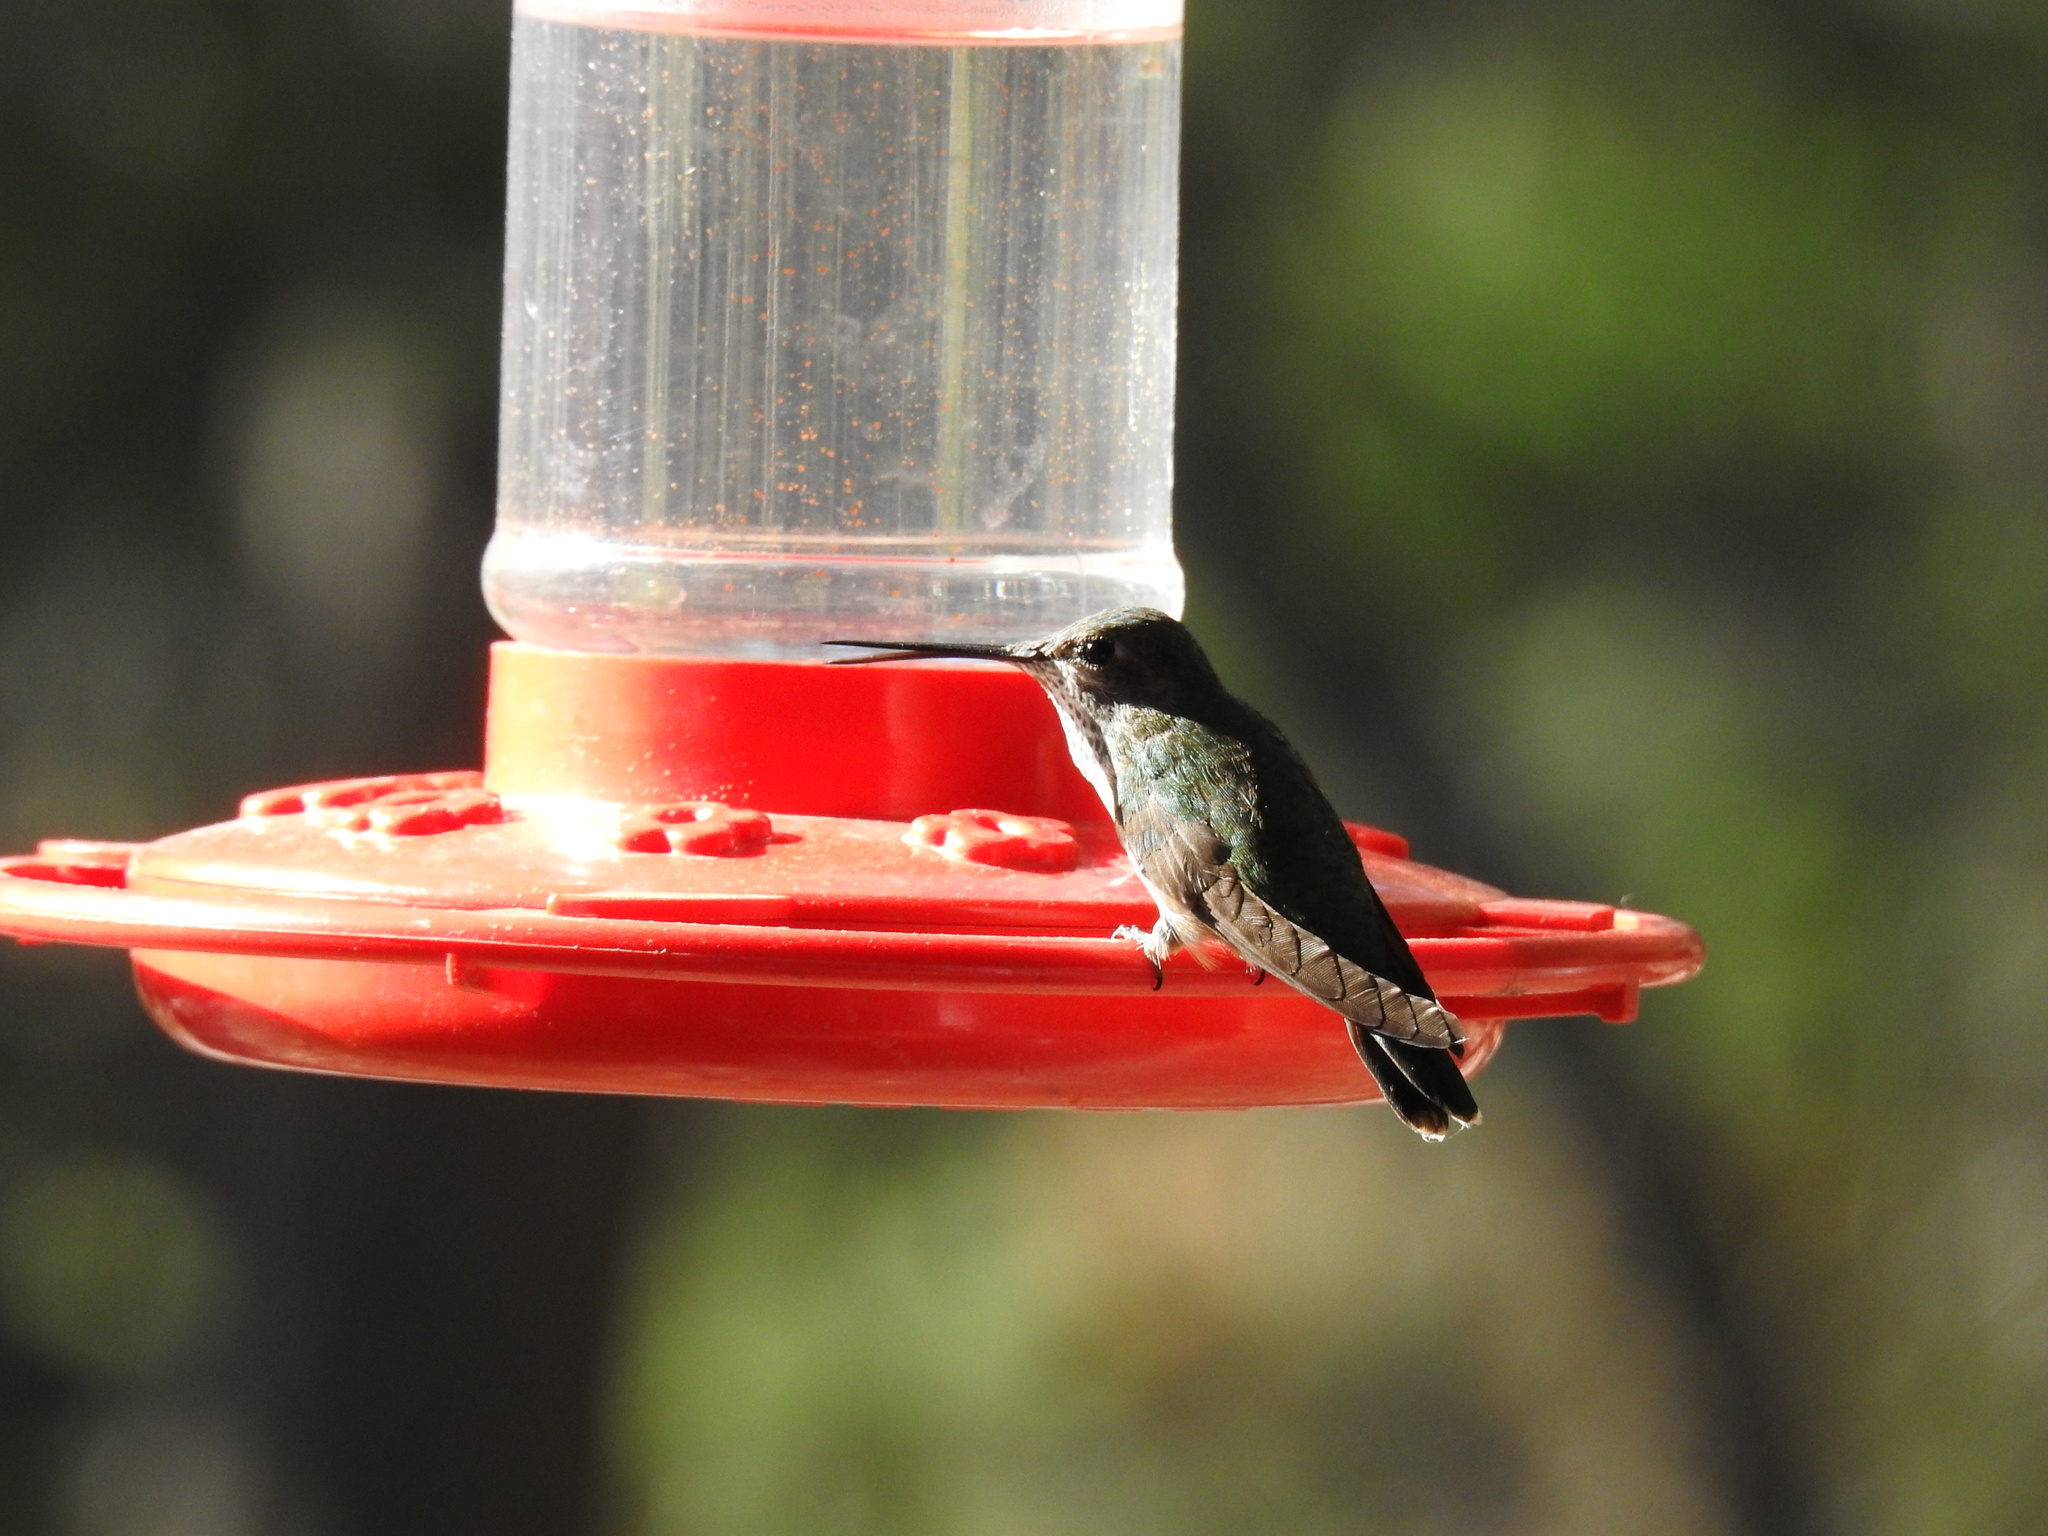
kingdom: Animalia
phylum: Chordata
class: Aves
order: Apodiformes
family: Trochilidae
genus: Selasphorus
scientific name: Selasphorus platycercus
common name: Broad-tailed hummingbird
